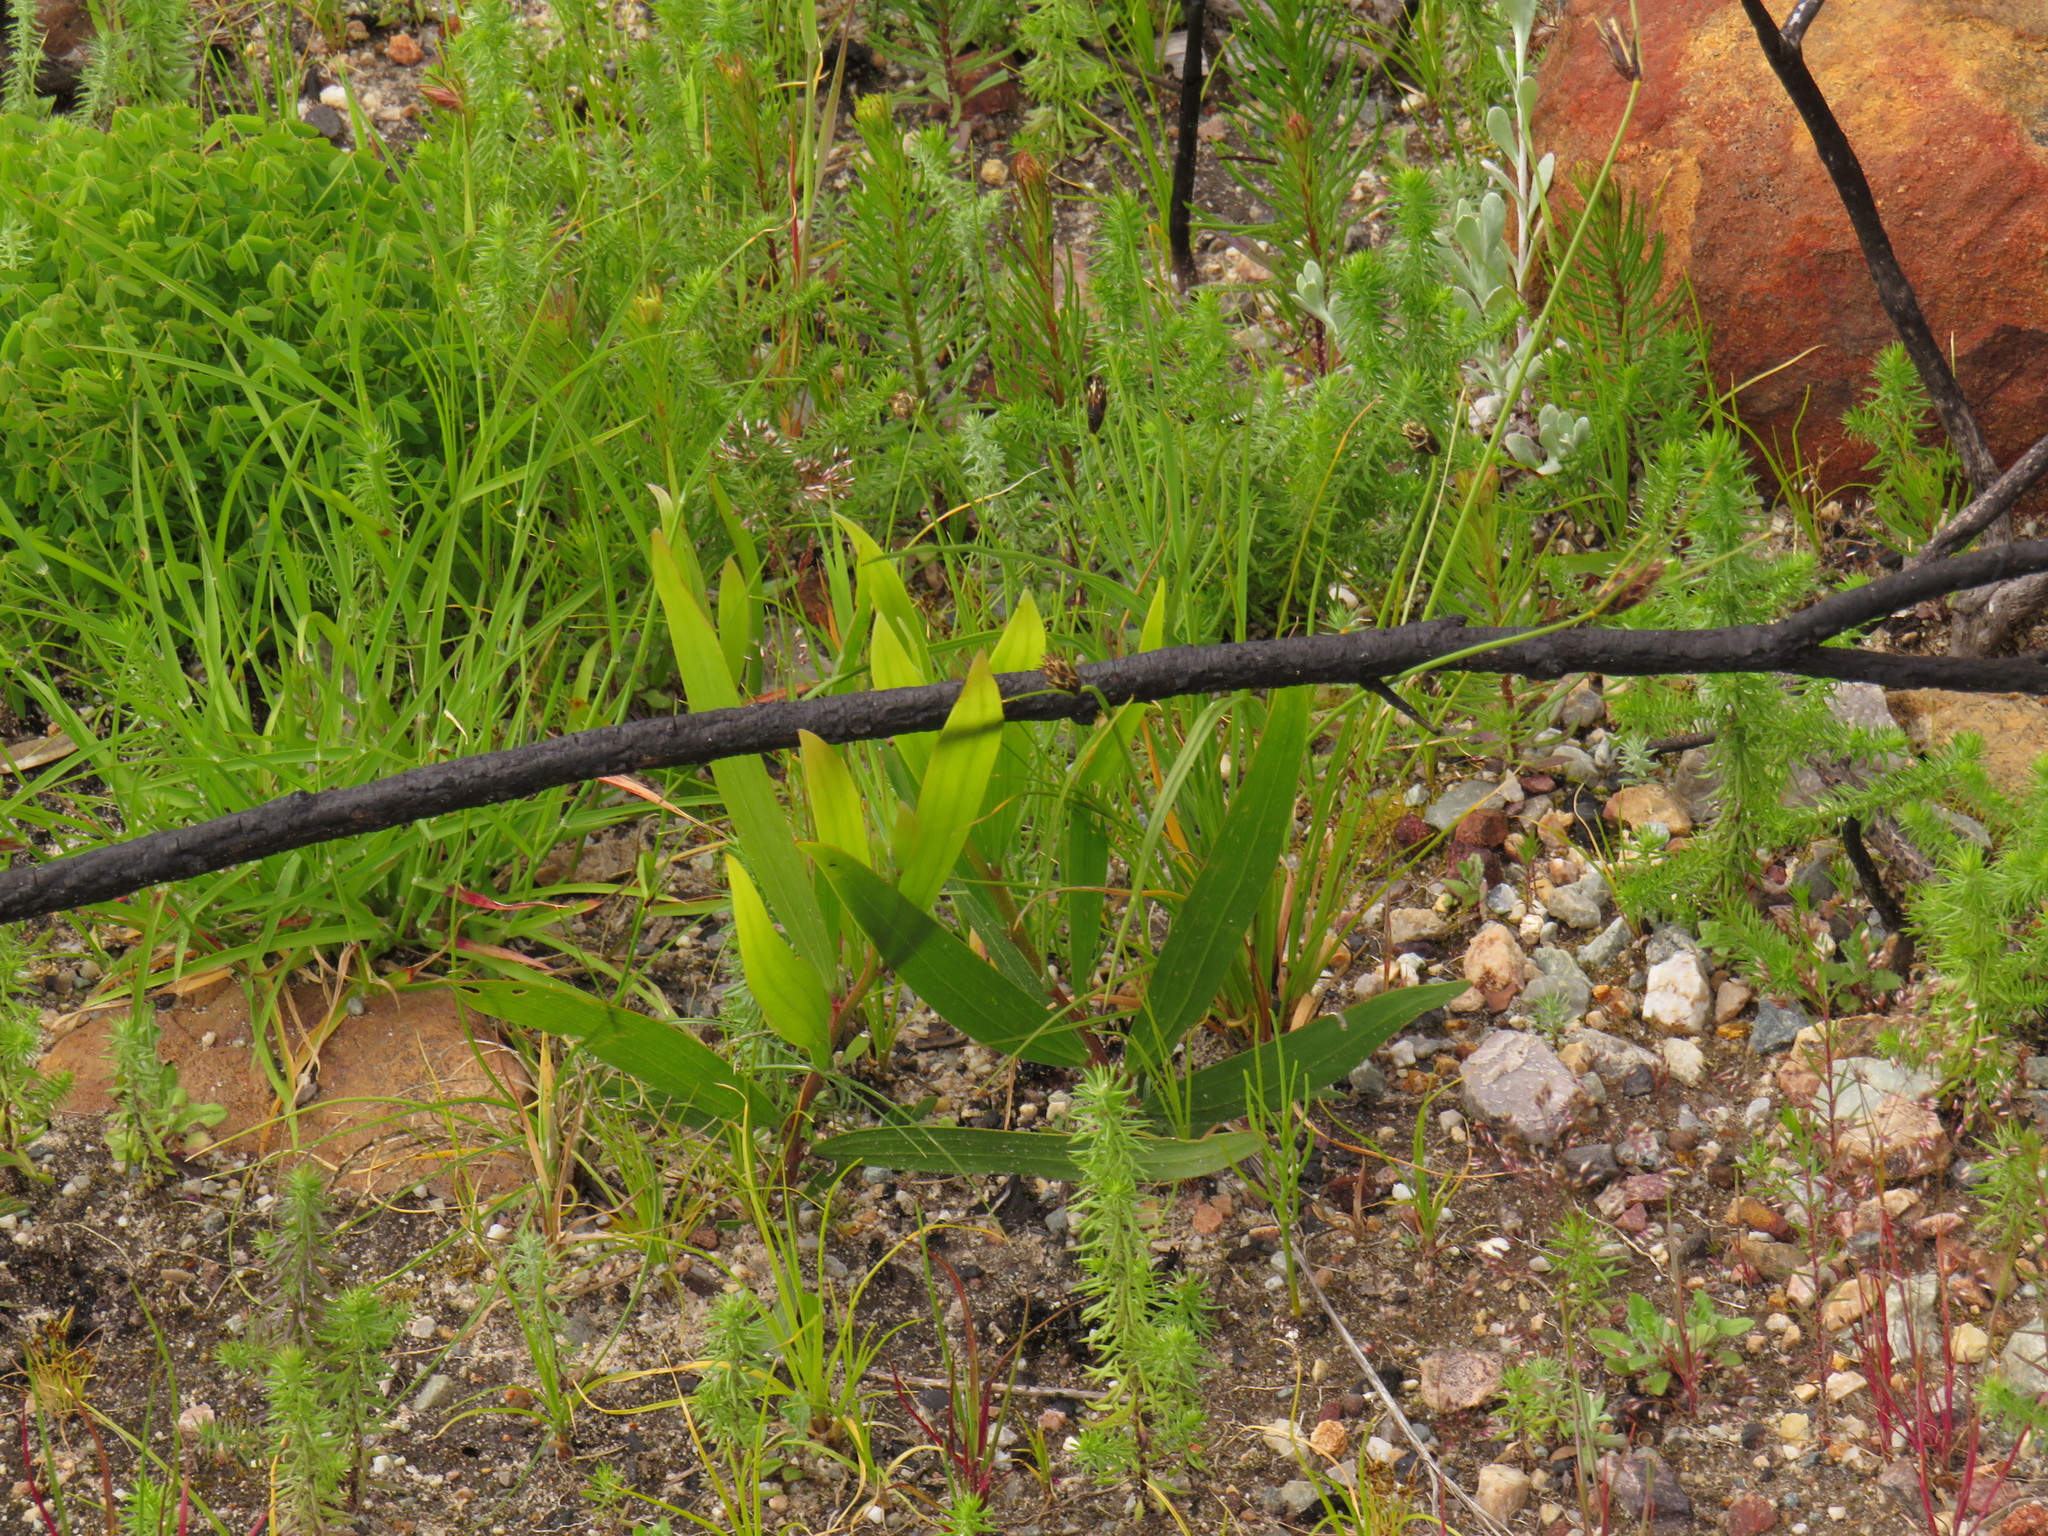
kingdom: Plantae
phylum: Tracheophyta
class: Magnoliopsida
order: Fabales
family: Fabaceae
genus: Acacia
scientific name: Acacia longifolia
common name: Sydney golden wattle
